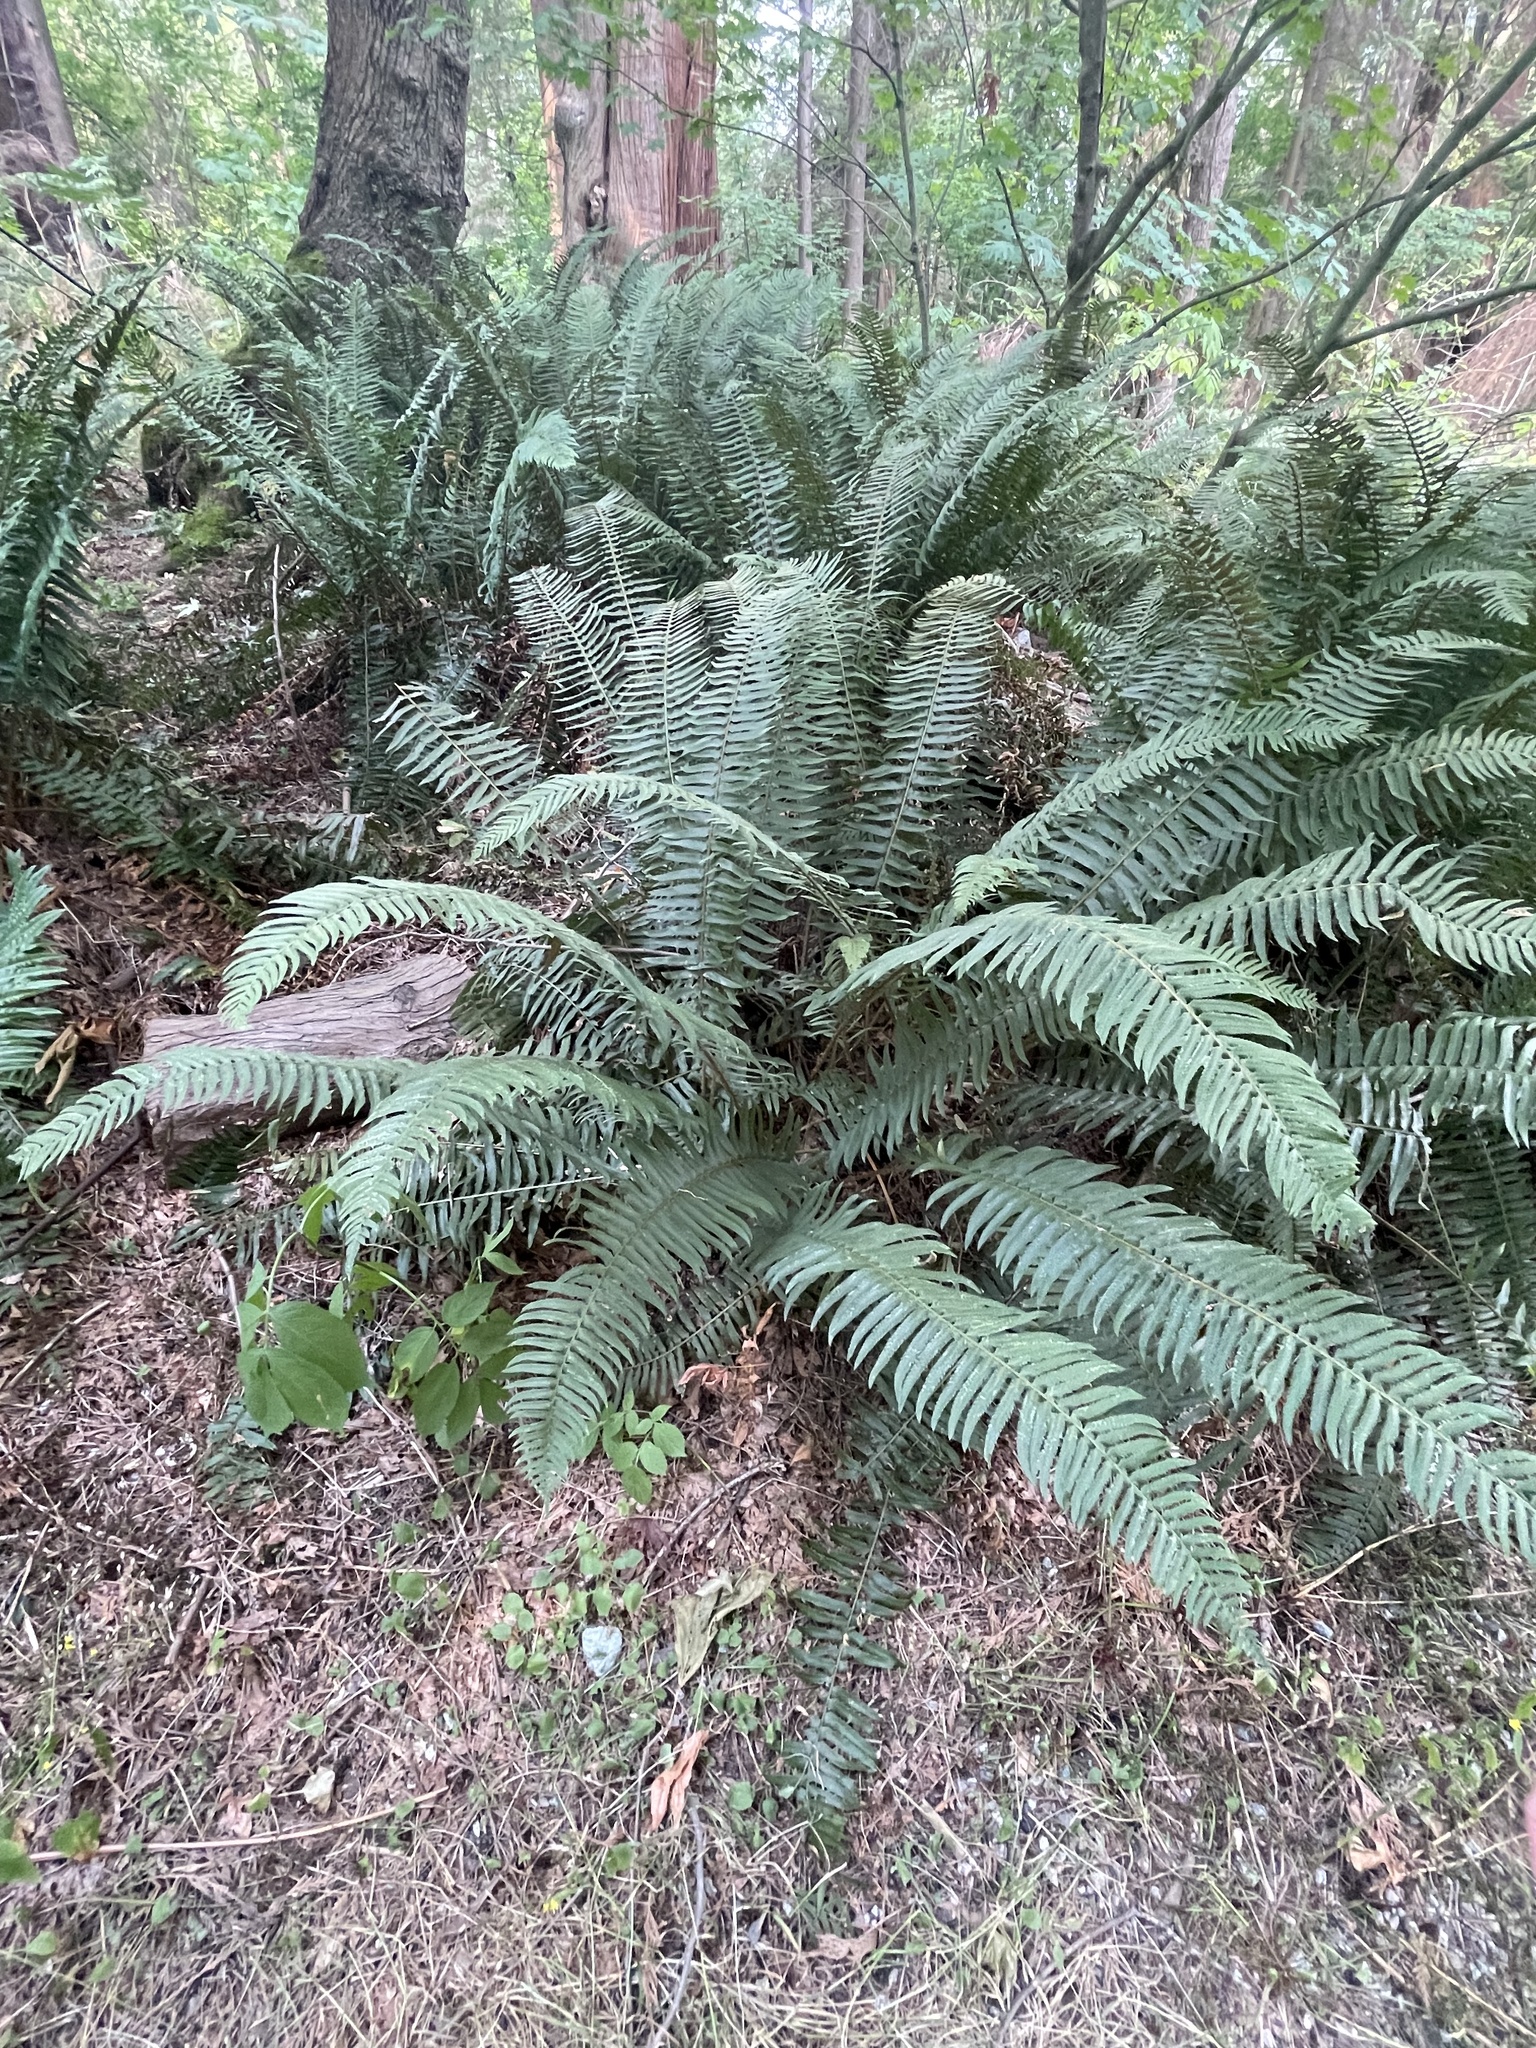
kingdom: Plantae
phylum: Tracheophyta
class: Polypodiopsida
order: Polypodiales
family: Dryopteridaceae
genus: Polystichum
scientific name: Polystichum munitum
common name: Western sword-fern
